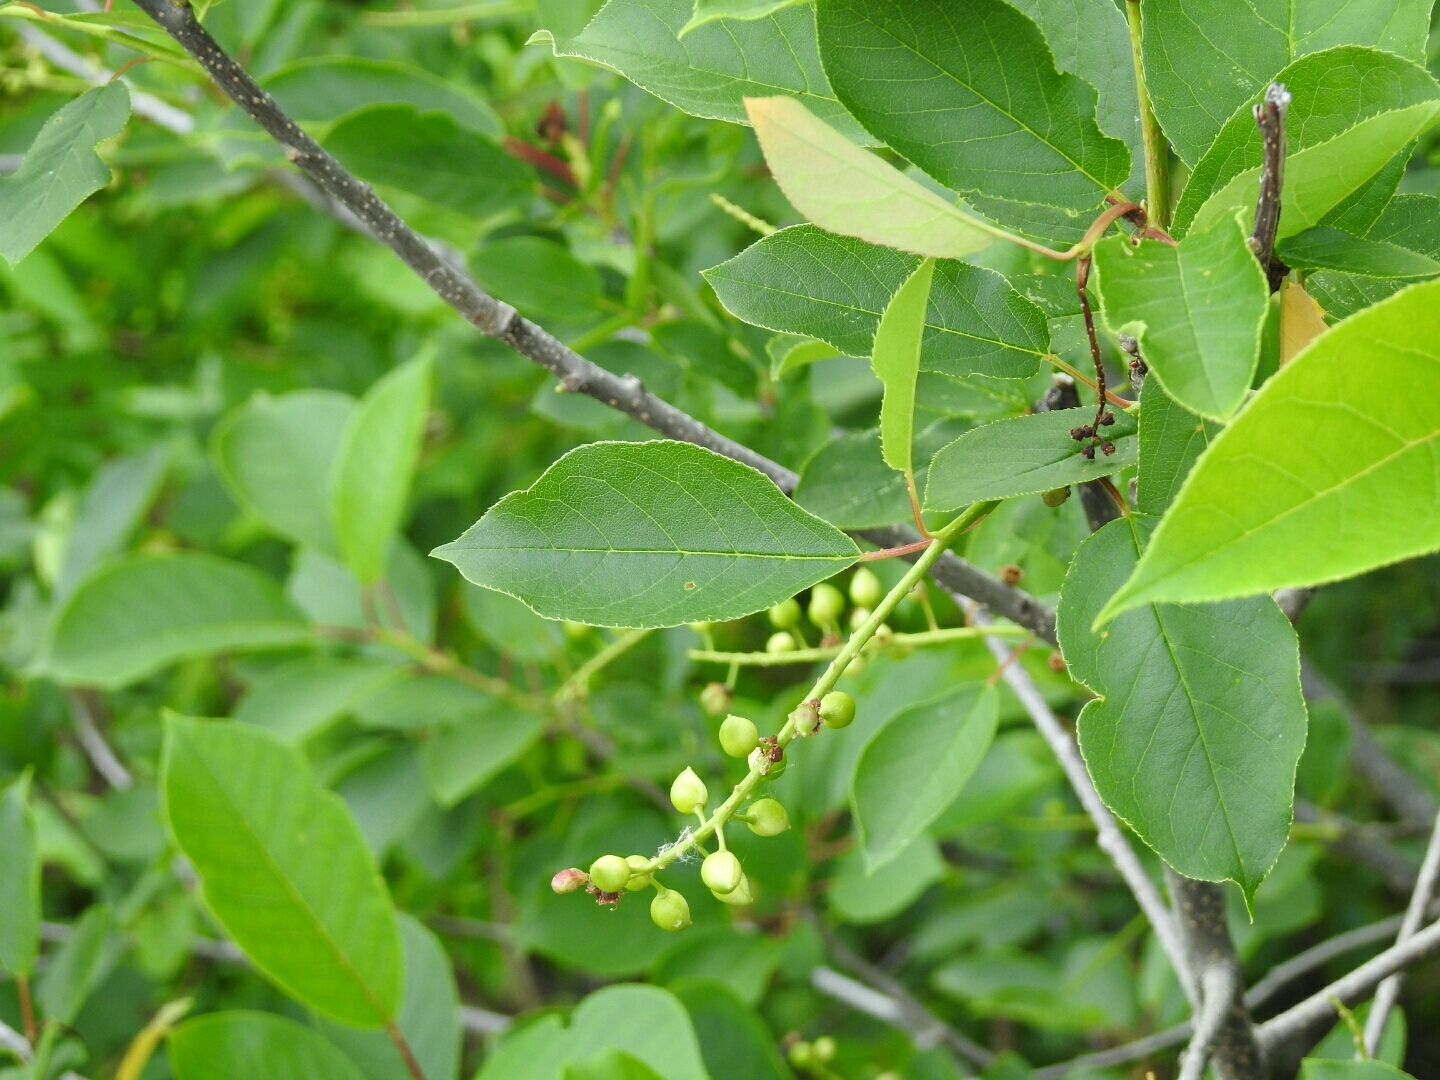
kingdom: Plantae
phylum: Tracheophyta
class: Magnoliopsida
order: Rosales
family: Rosaceae
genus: Prunus
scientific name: Prunus virginiana
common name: Chokecherry
